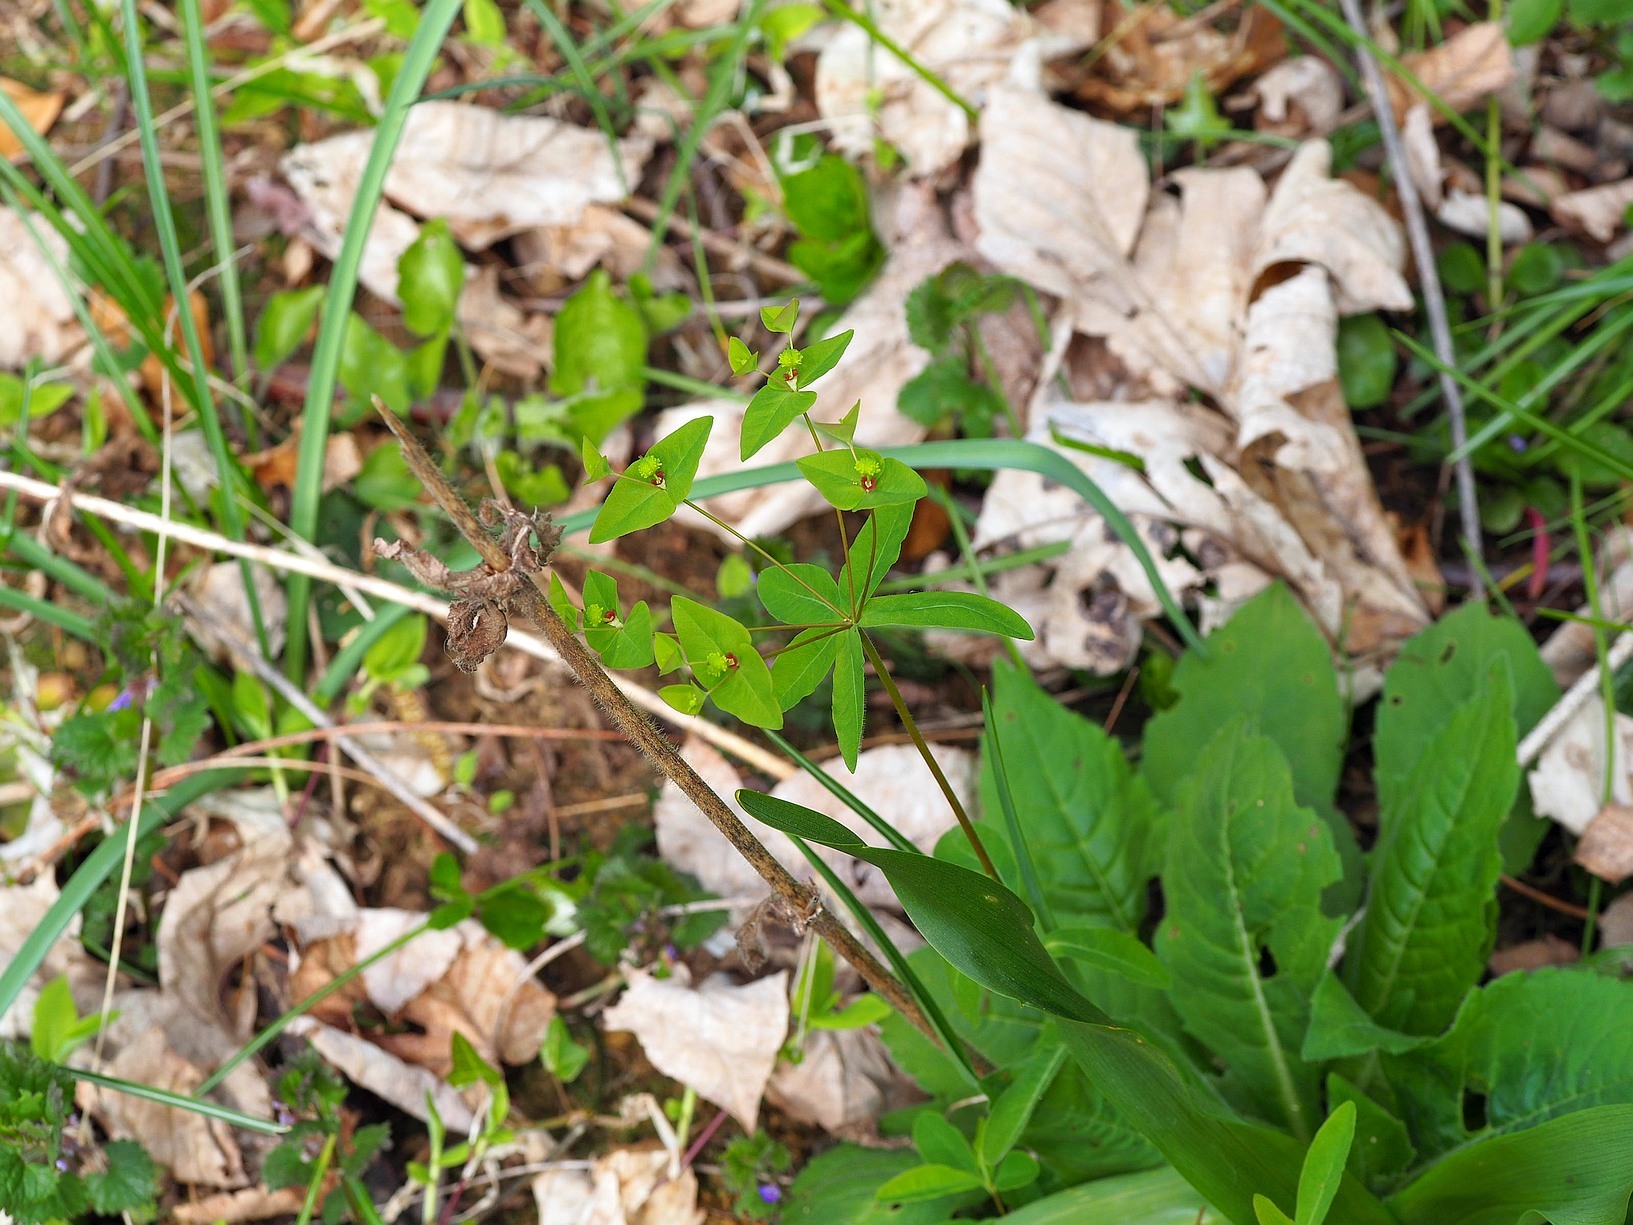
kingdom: Plantae
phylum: Tracheophyta
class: Magnoliopsida
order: Malpighiales
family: Euphorbiaceae
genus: Euphorbia
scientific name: Euphorbia dulcis
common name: Sweet spurge
